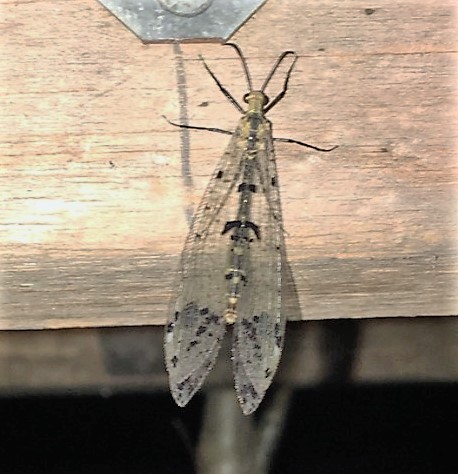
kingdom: Animalia
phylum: Arthropoda
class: Insecta
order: Neuroptera
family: Myrmeleontidae
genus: Dendroleon
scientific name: Dendroleon obsoletus
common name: Eastern spotted-winged antlion
